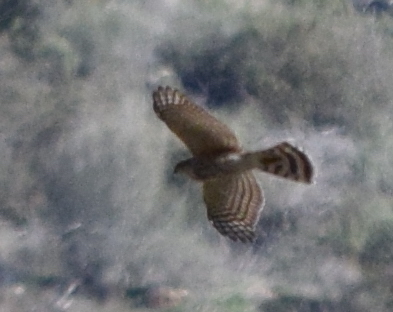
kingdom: Animalia
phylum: Chordata
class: Aves
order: Accipitriformes
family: Accipitridae
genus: Accipiter
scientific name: Accipiter striatus
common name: Sharp-shinned hawk
